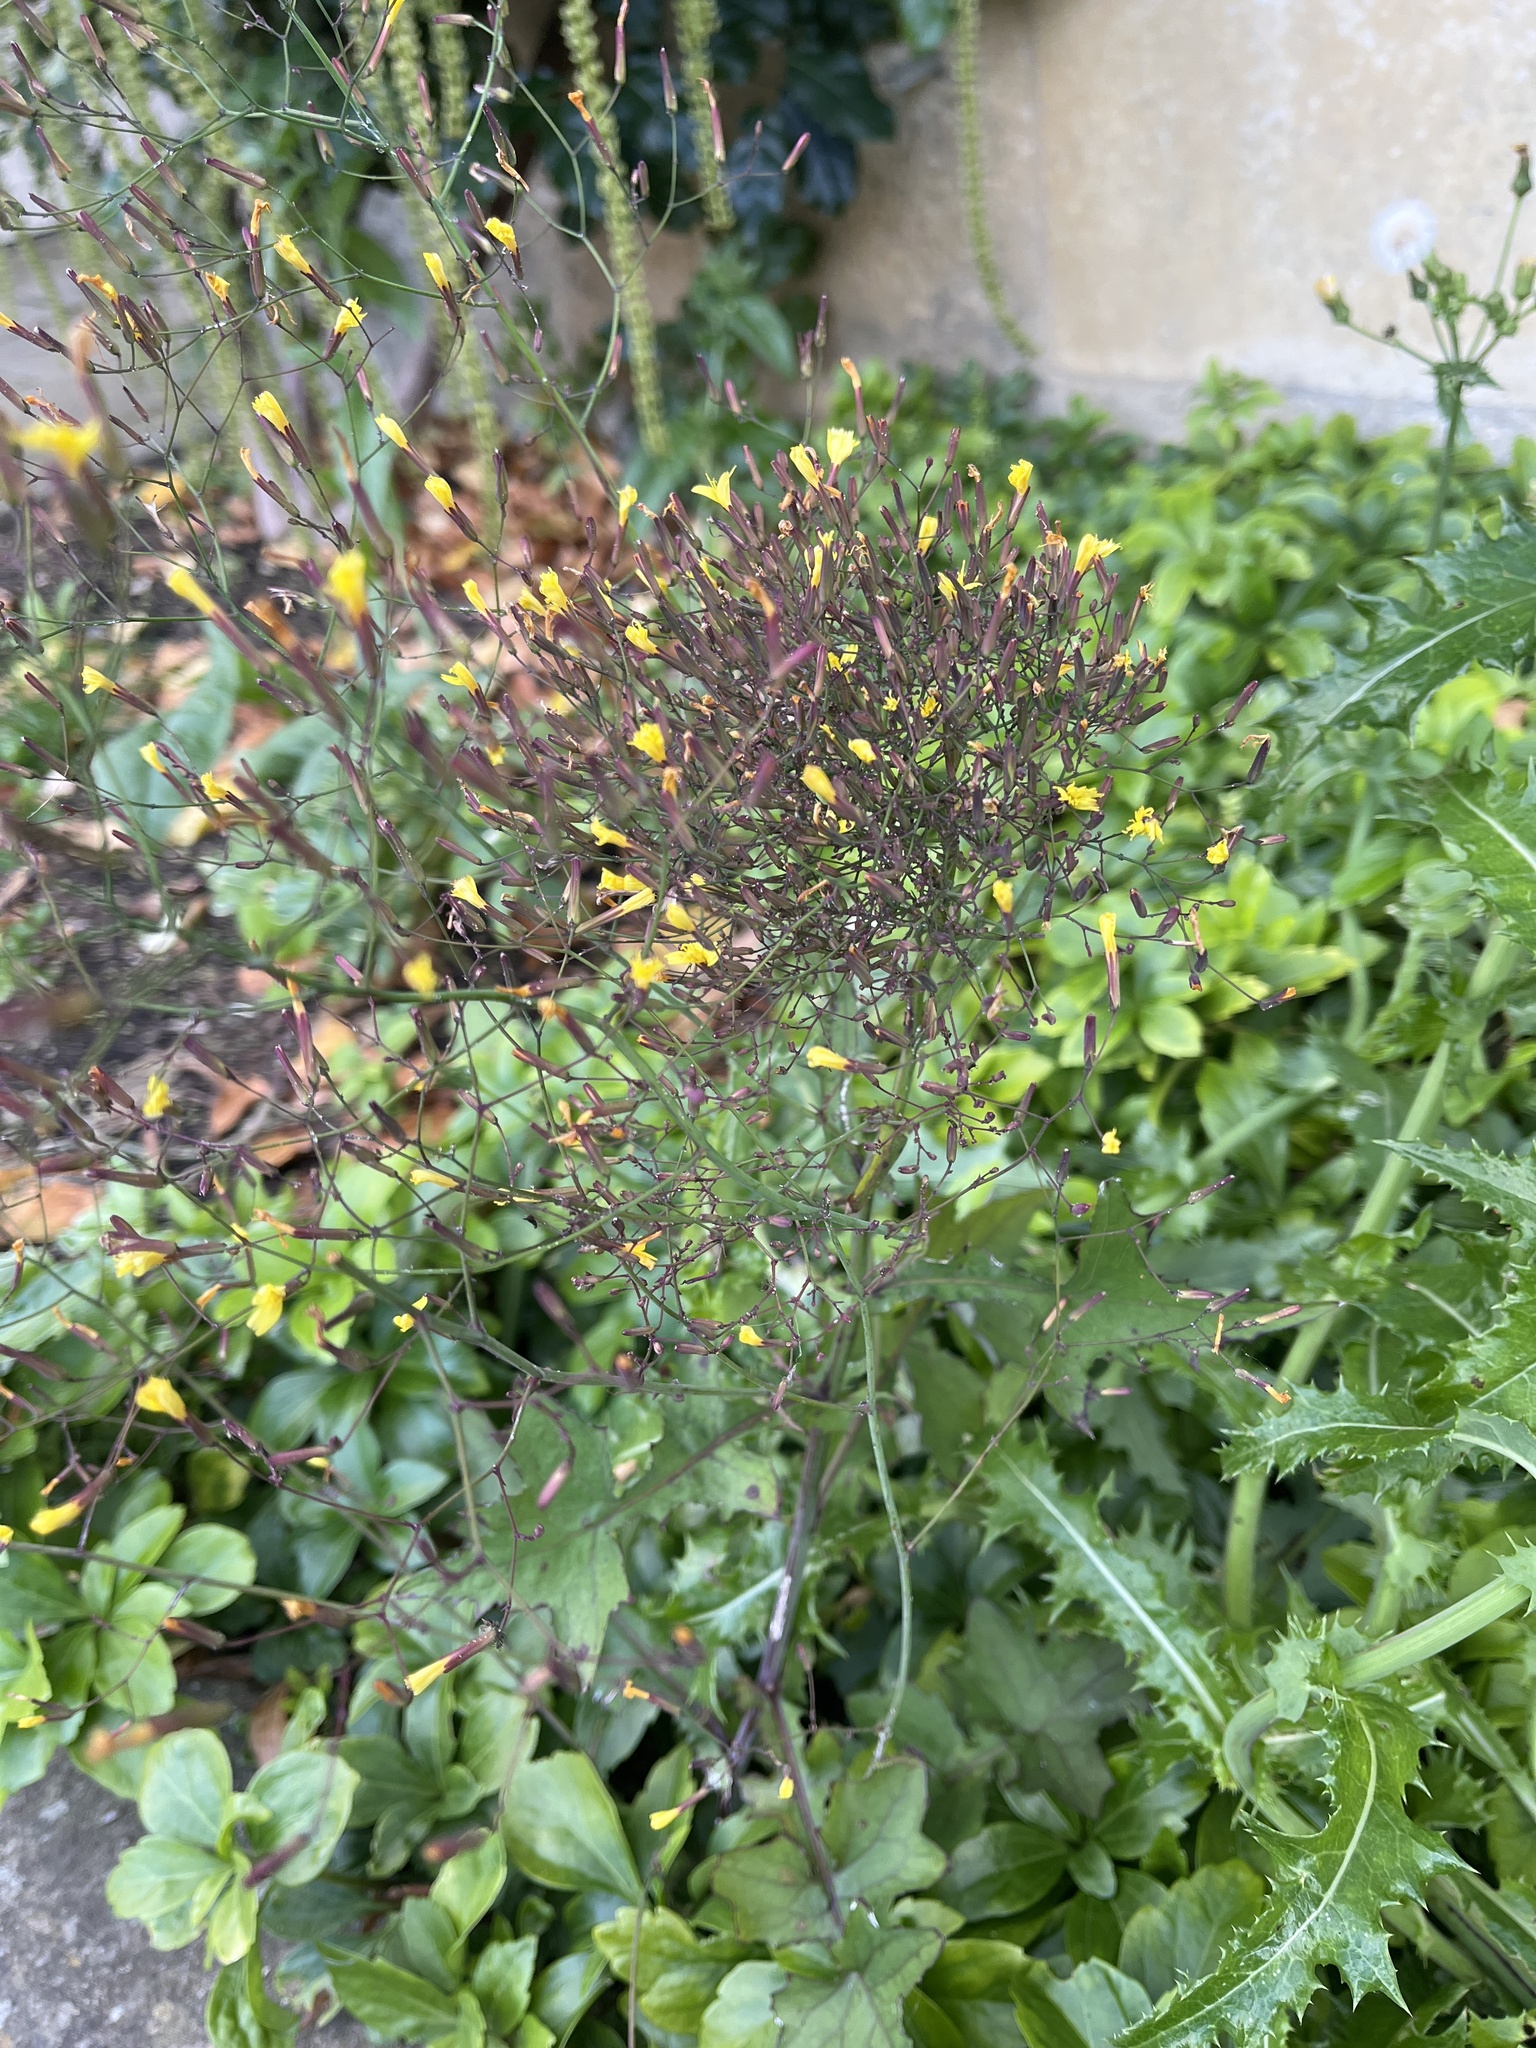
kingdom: Plantae
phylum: Tracheophyta
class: Magnoliopsida
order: Asterales
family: Asteraceae
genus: Mycelis
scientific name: Mycelis muralis
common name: Wall lettuce
